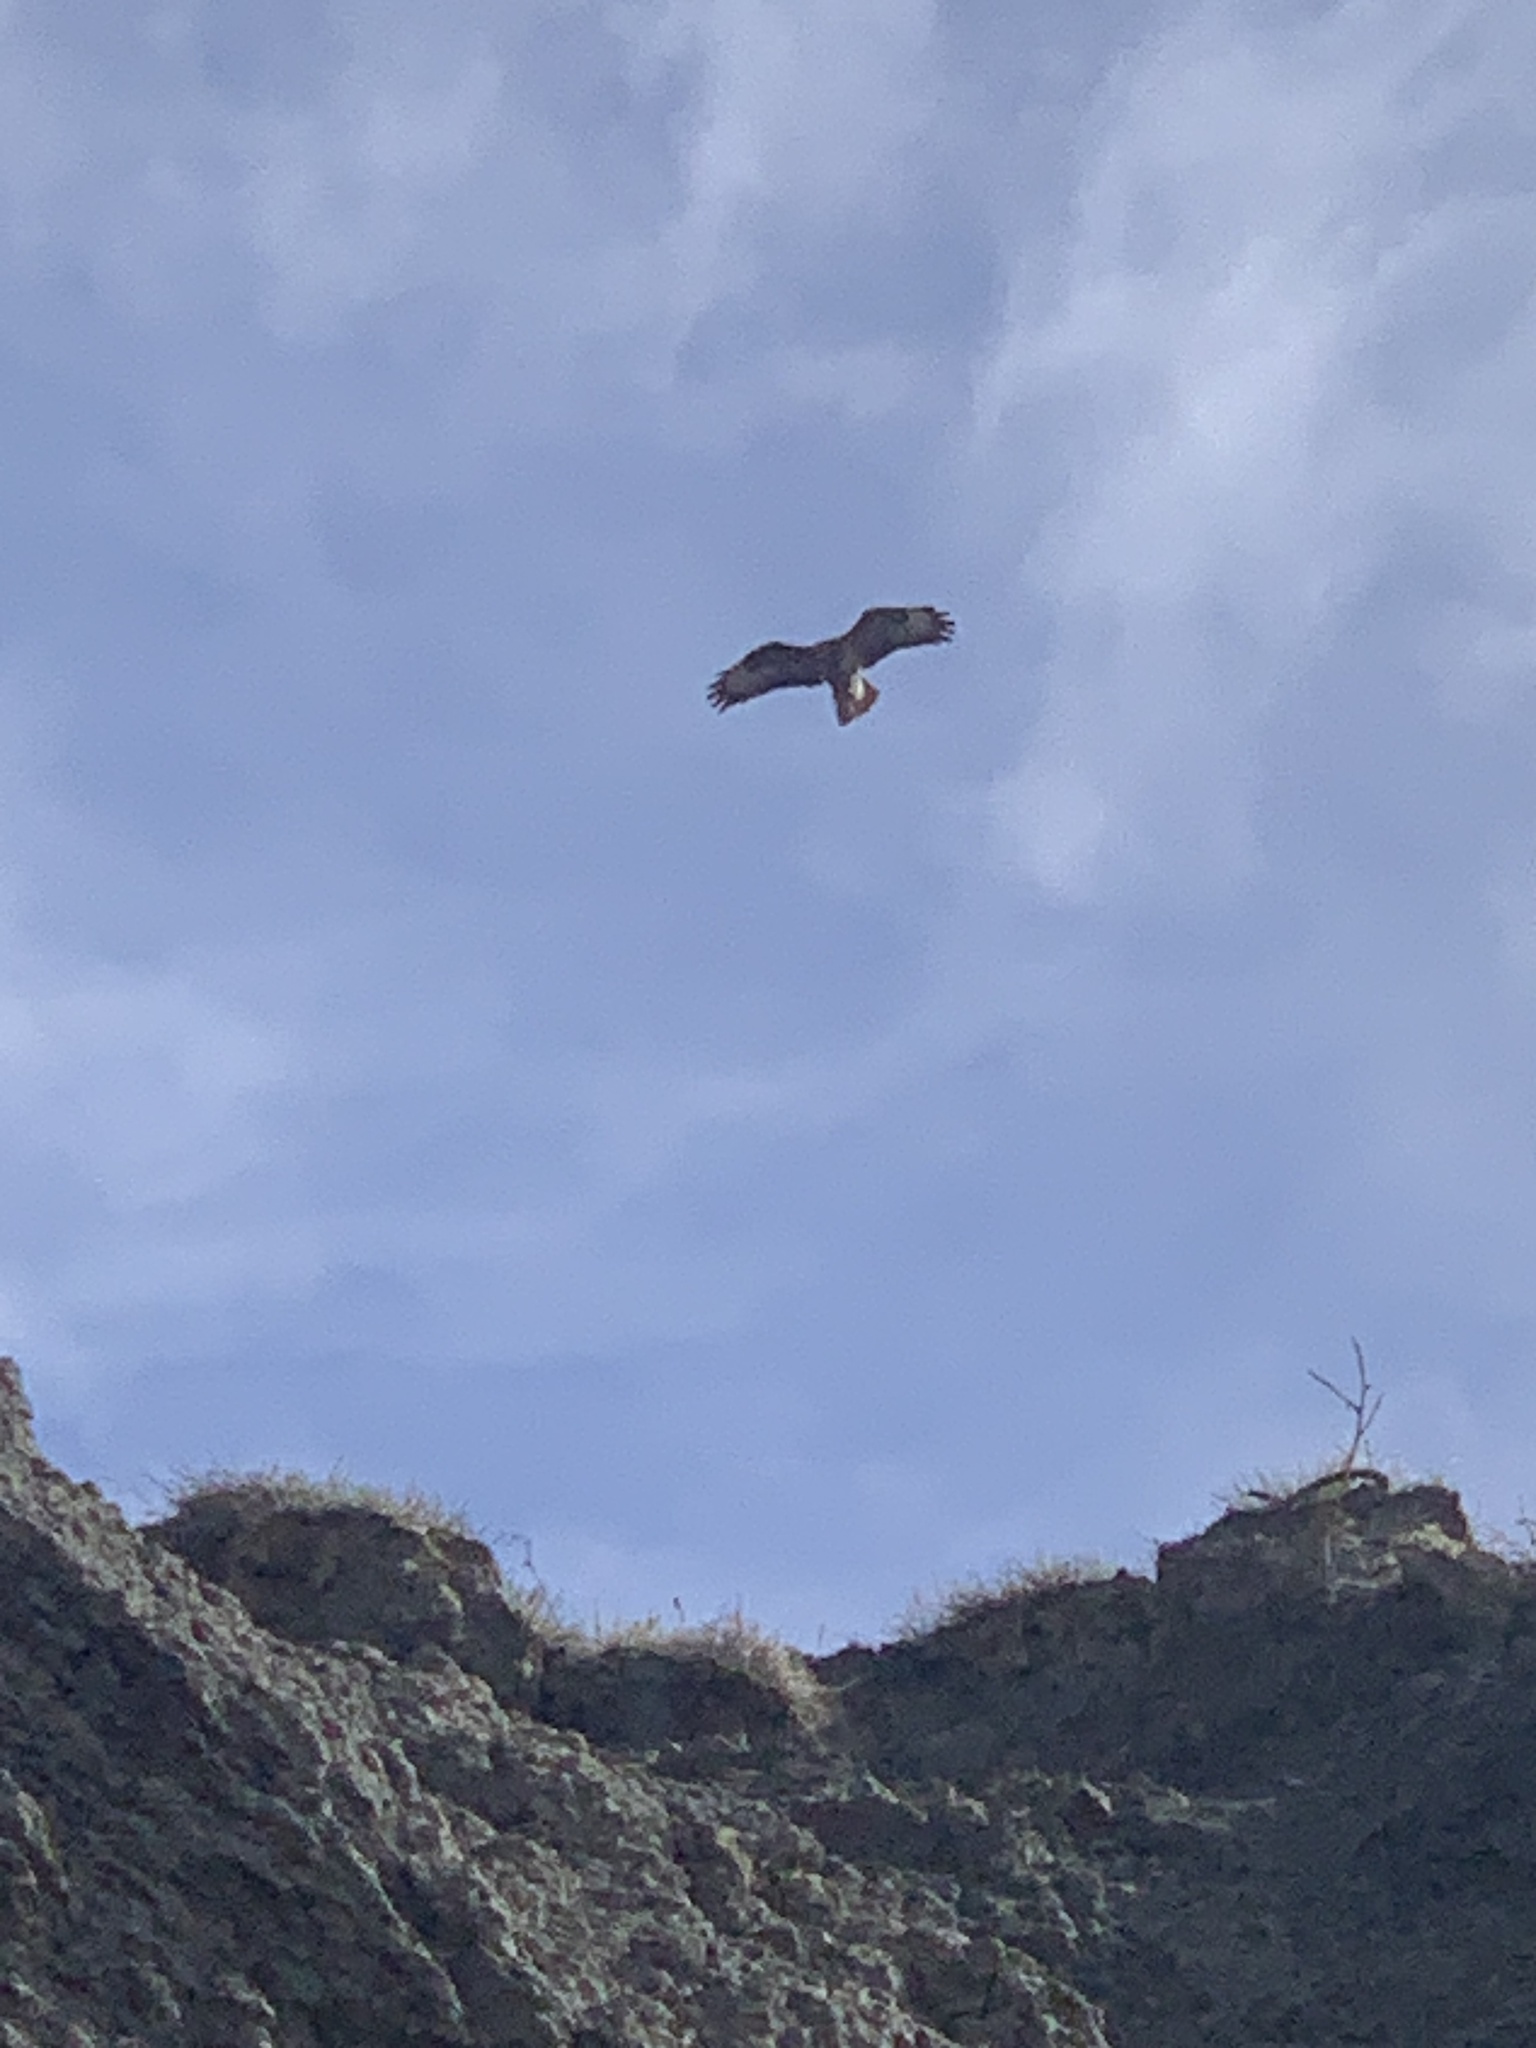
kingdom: Animalia
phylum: Chordata
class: Aves
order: Accipitriformes
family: Accipitridae
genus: Buteo
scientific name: Buteo buteo
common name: Common buzzard
